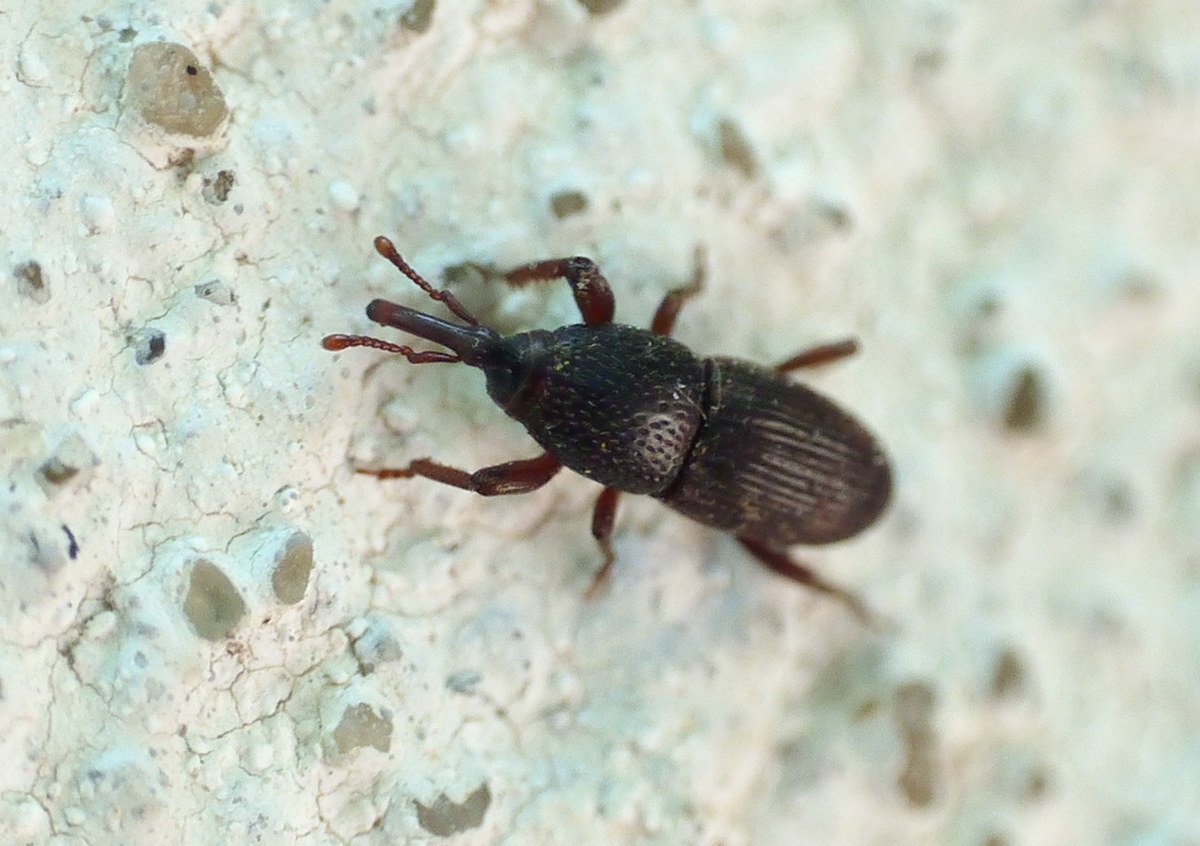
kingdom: Animalia
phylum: Arthropoda
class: Insecta
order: Coleoptera
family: Dryophthoridae
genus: Sitophilus
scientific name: Sitophilus granarius
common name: Granary weevil
